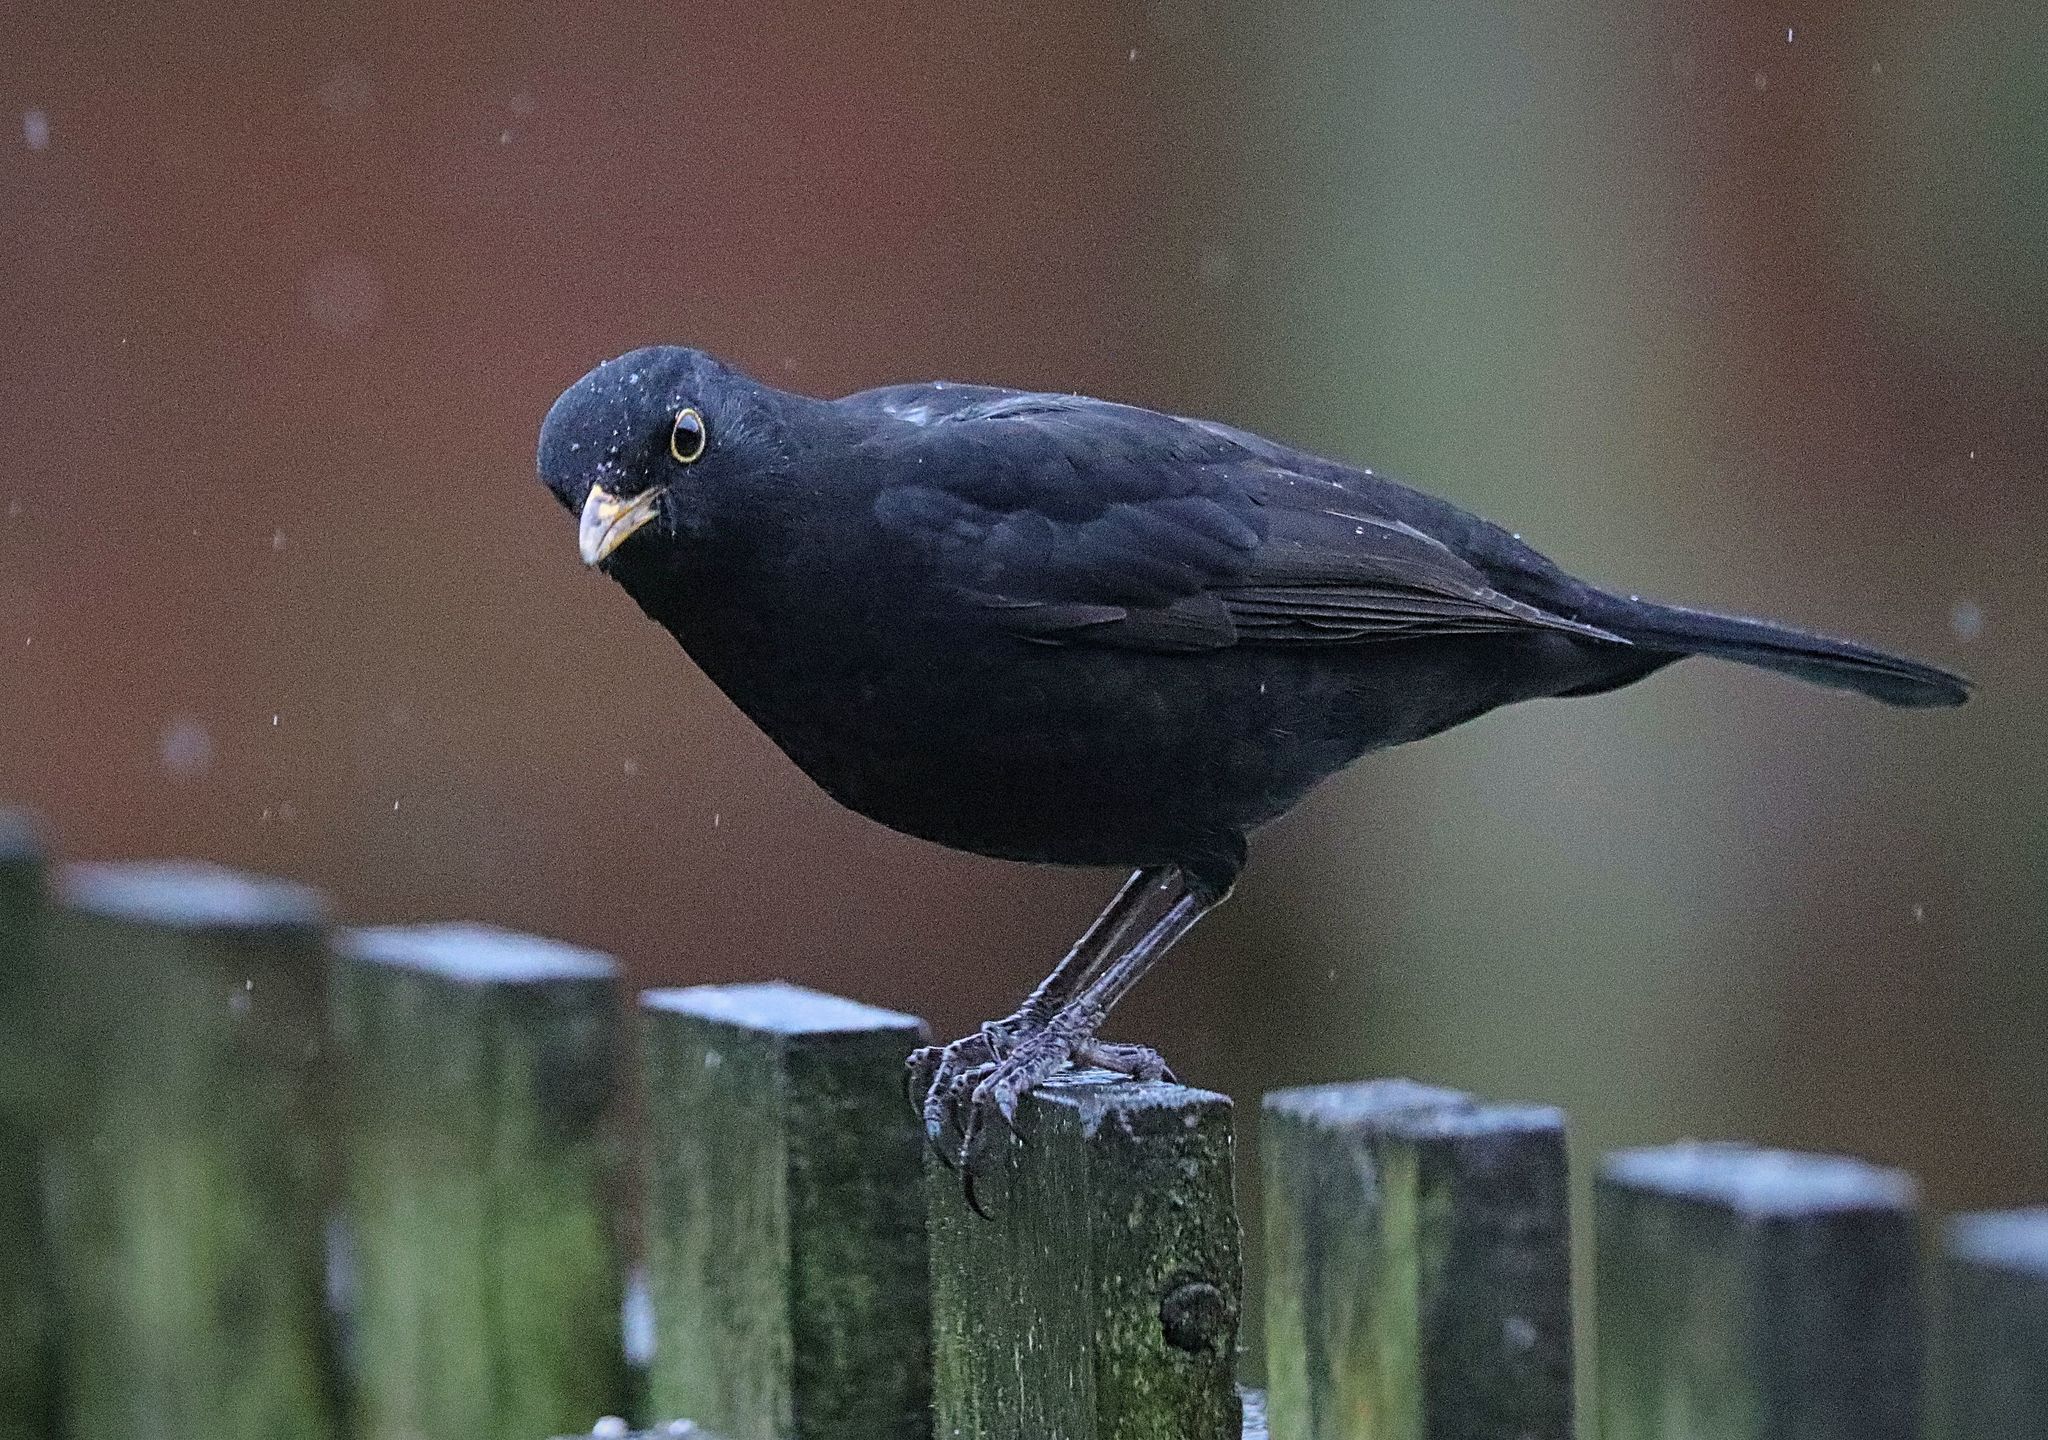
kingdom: Animalia
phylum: Chordata
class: Aves
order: Passeriformes
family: Turdidae
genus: Turdus
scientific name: Turdus merula
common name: Common blackbird
